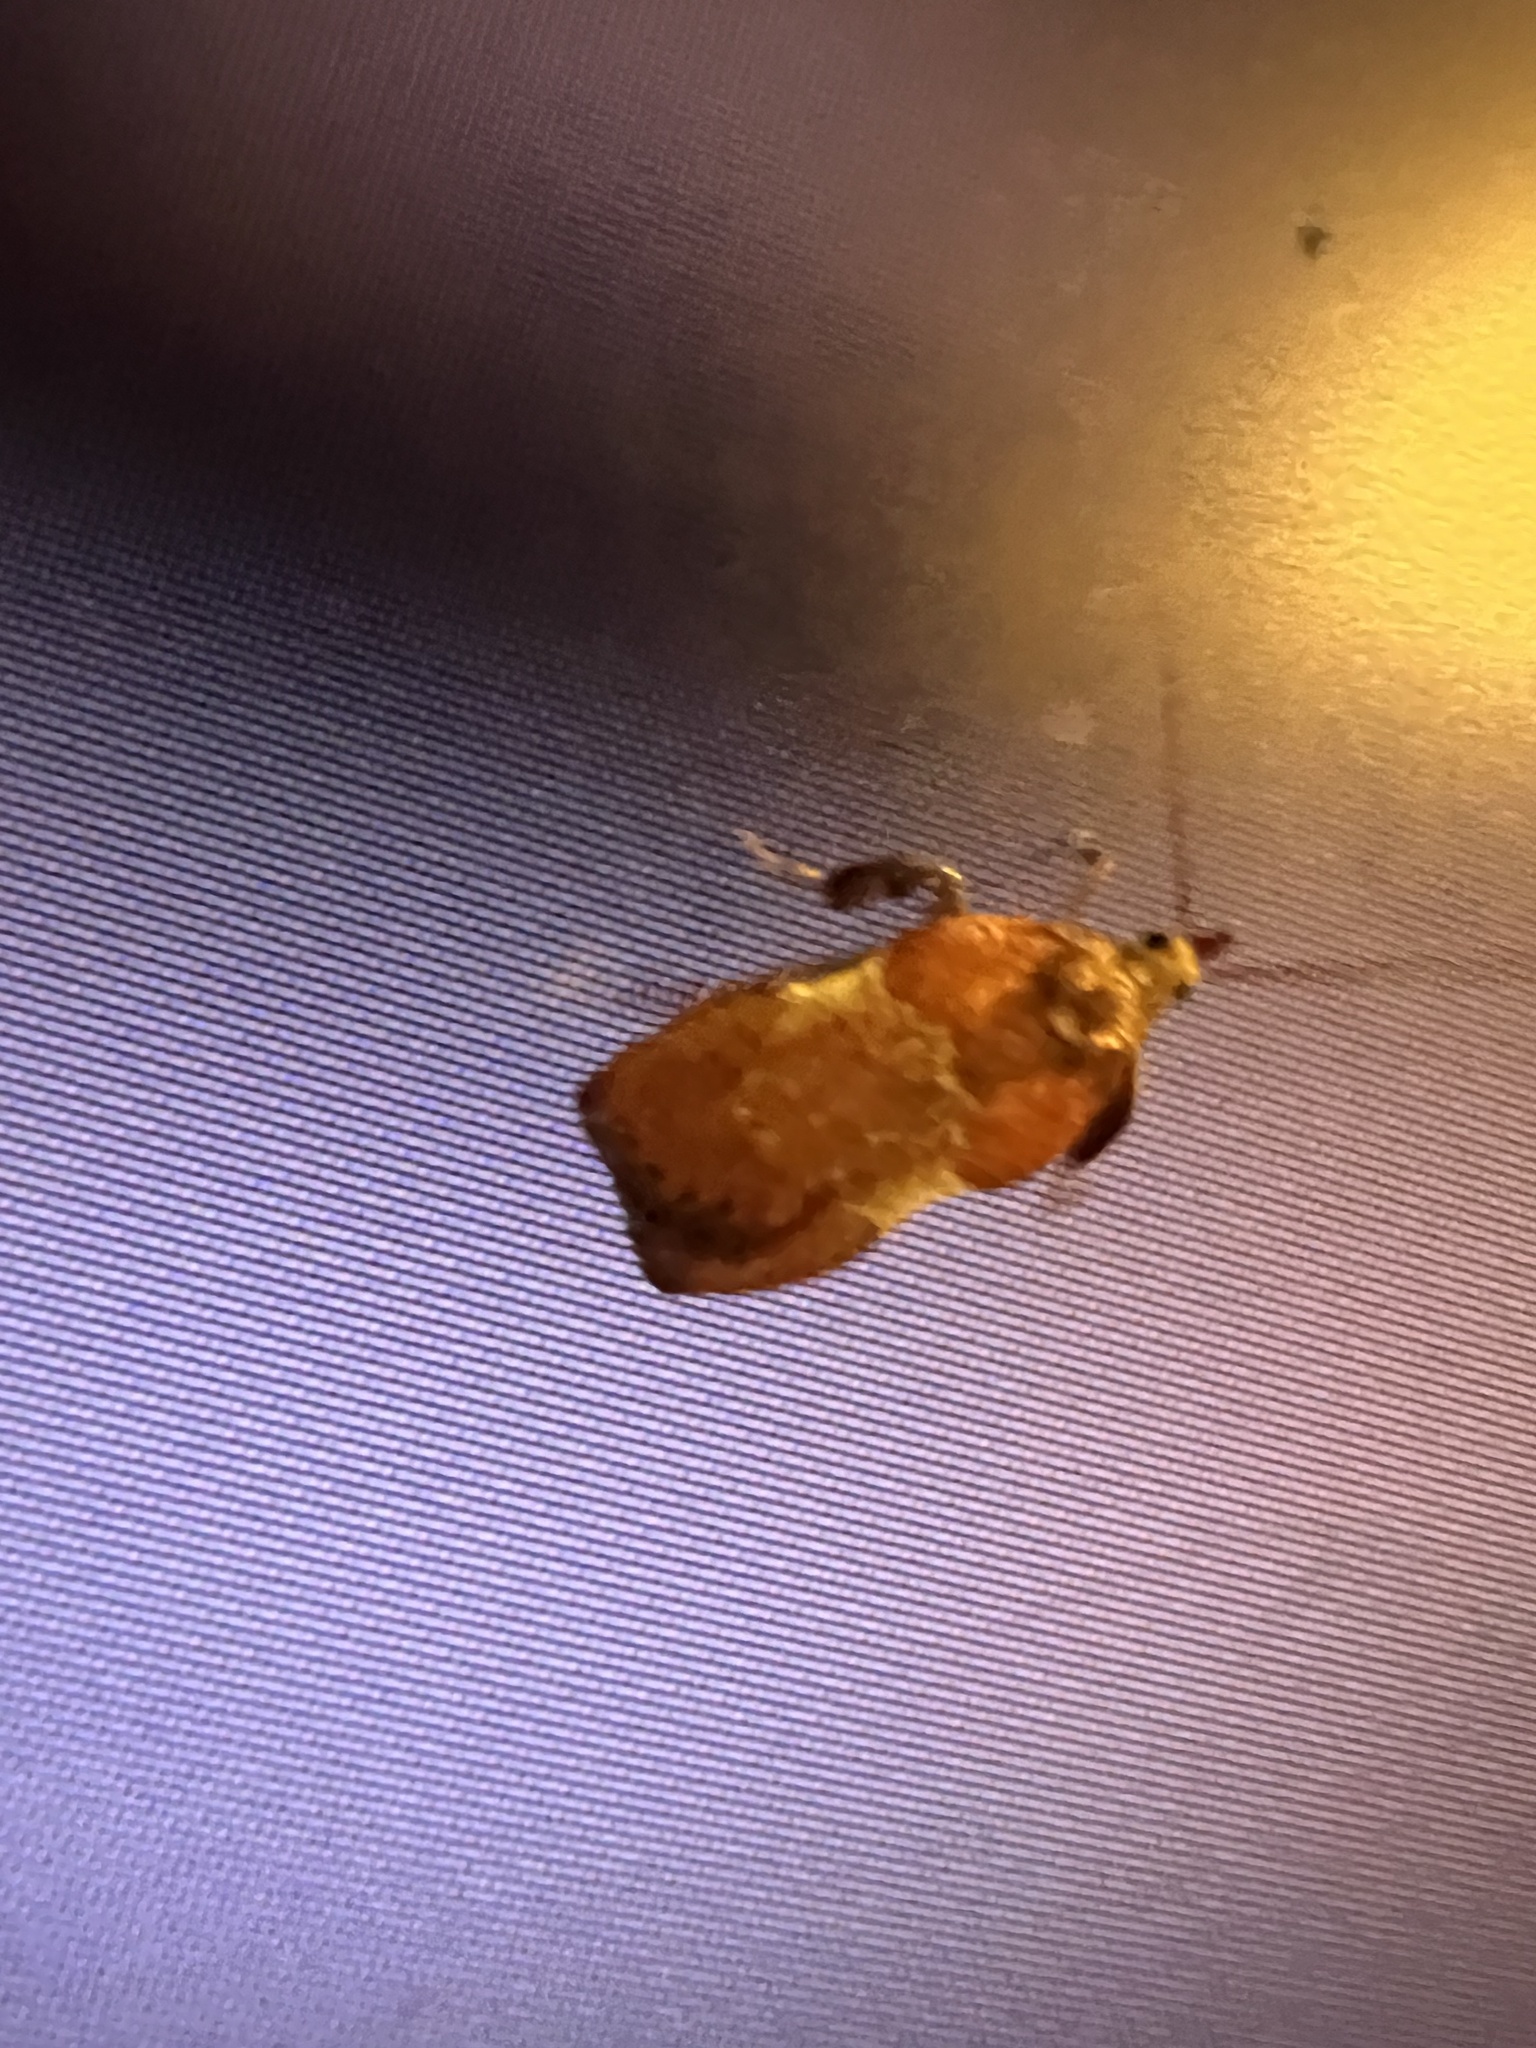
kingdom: Animalia
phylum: Arthropoda
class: Insecta
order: Lepidoptera
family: Pyralidae
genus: Galasa
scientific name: Galasa nigrinodis
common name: Boxwood leaftier moth
